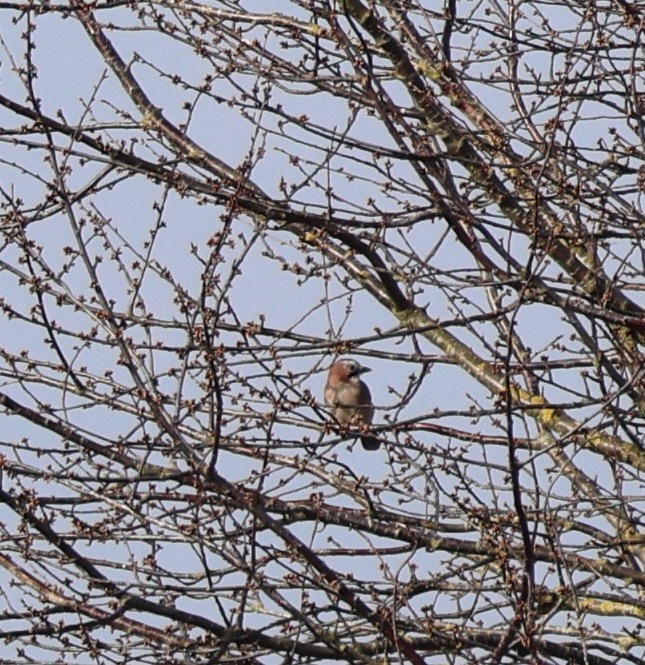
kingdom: Animalia
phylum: Chordata
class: Aves
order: Passeriformes
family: Corvidae
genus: Garrulus
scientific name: Garrulus glandarius
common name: Eurasian jay
